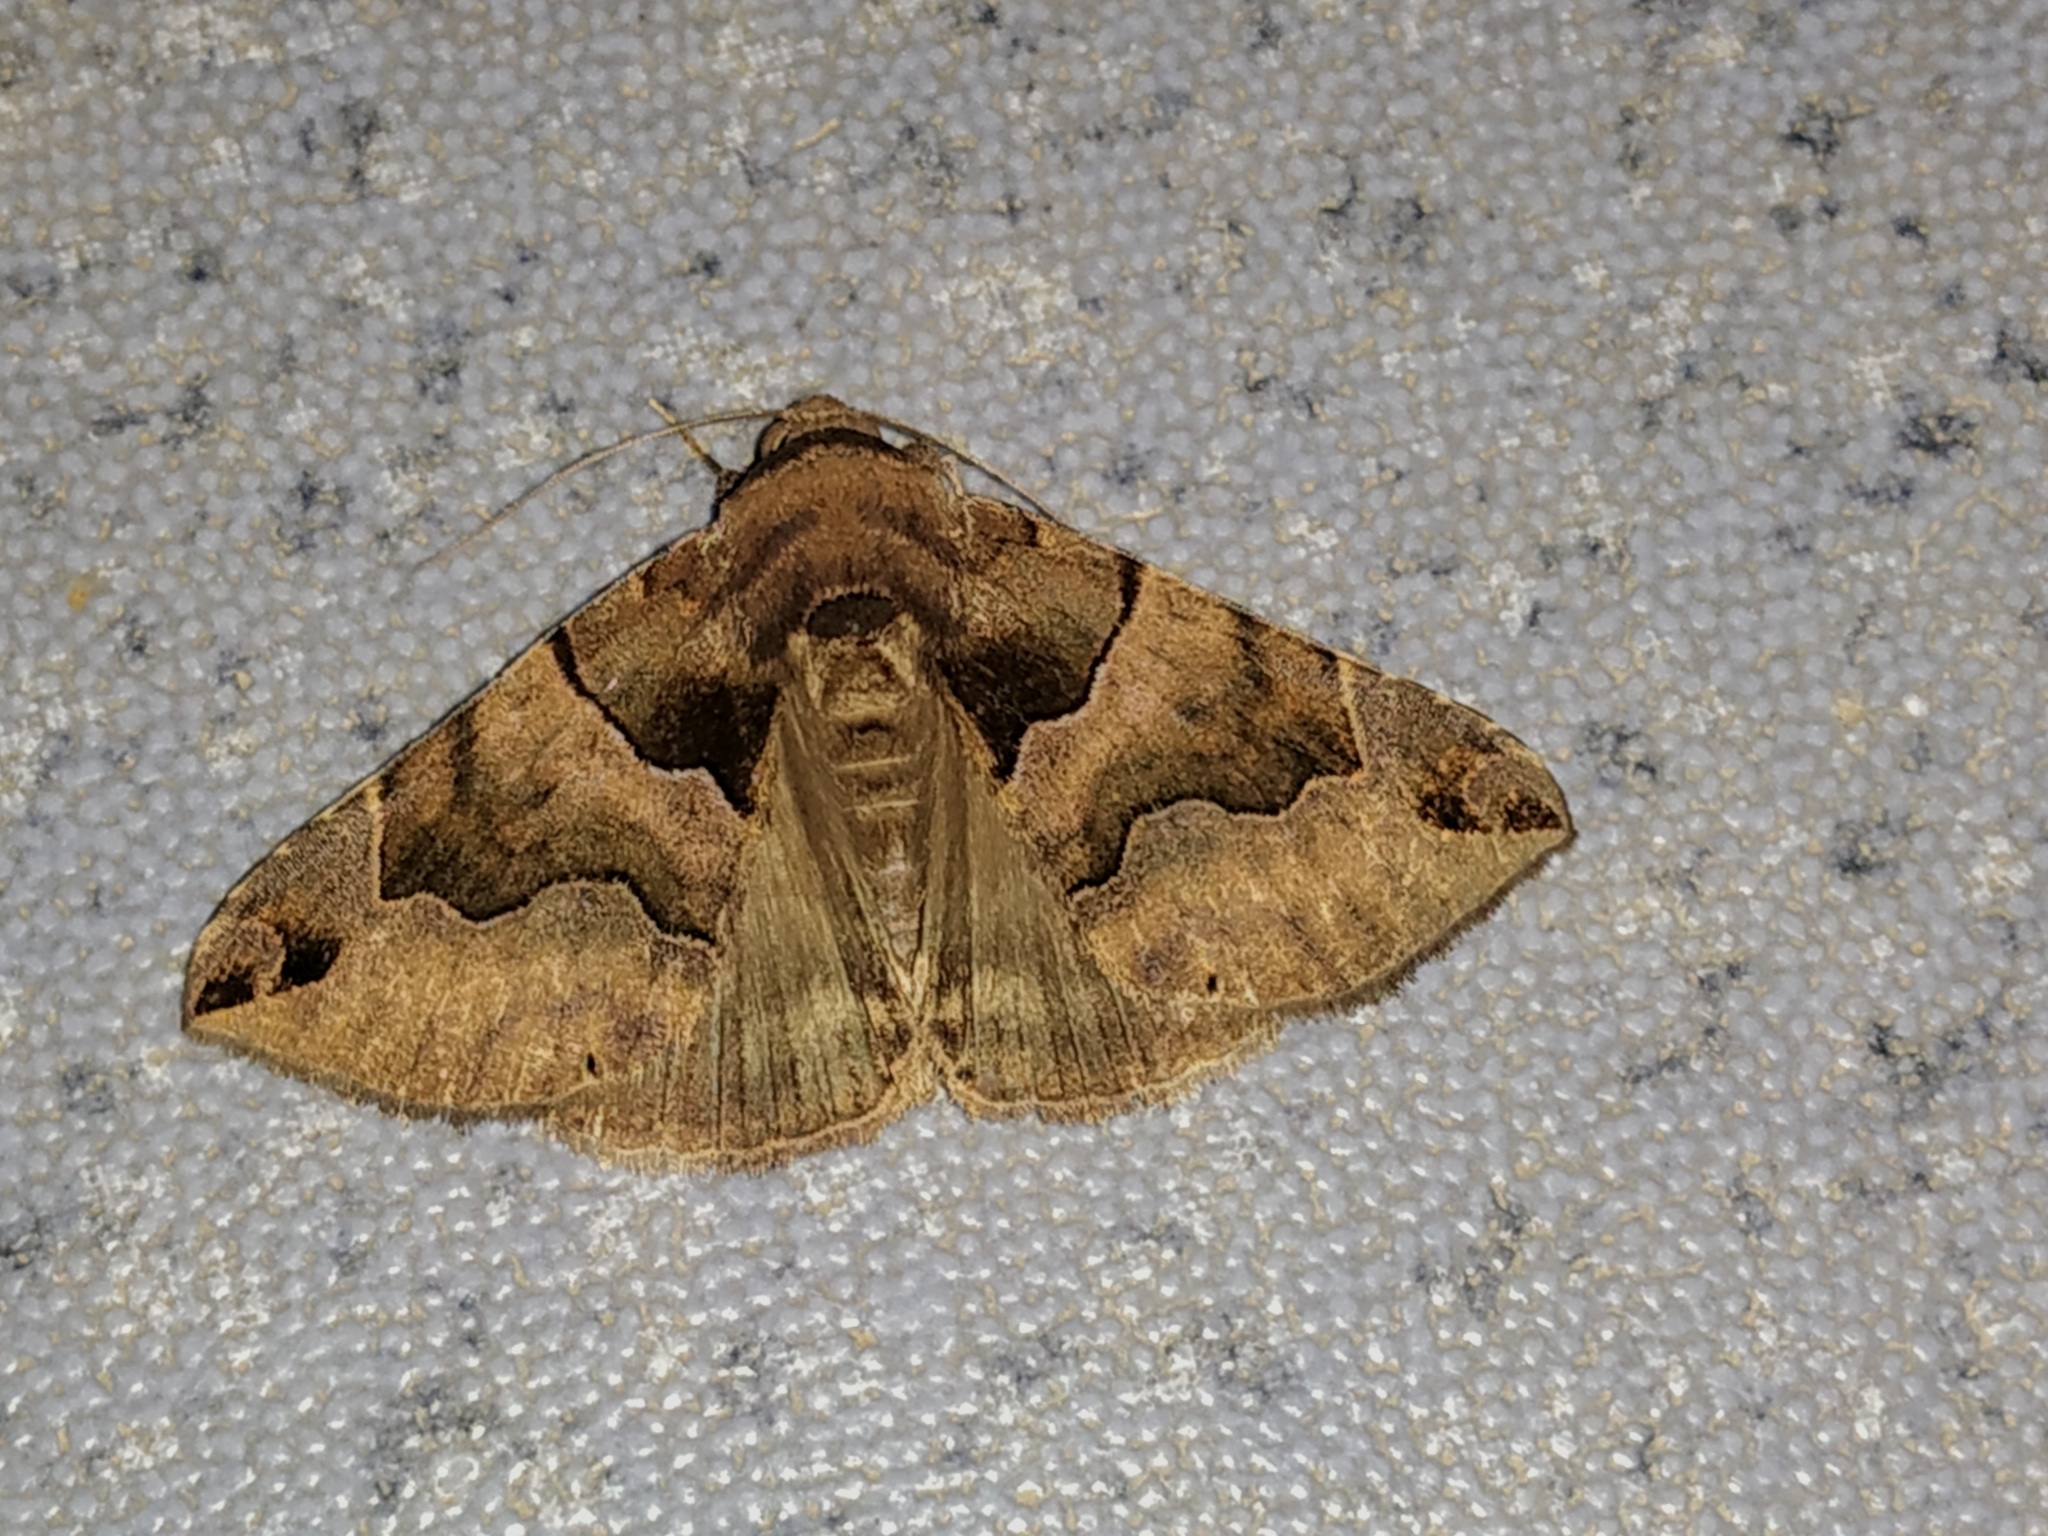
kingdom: Animalia
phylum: Arthropoda
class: Insecta
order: Lepidoptera
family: Erebidae
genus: Dysgonia
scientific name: Dysgonia simillima
